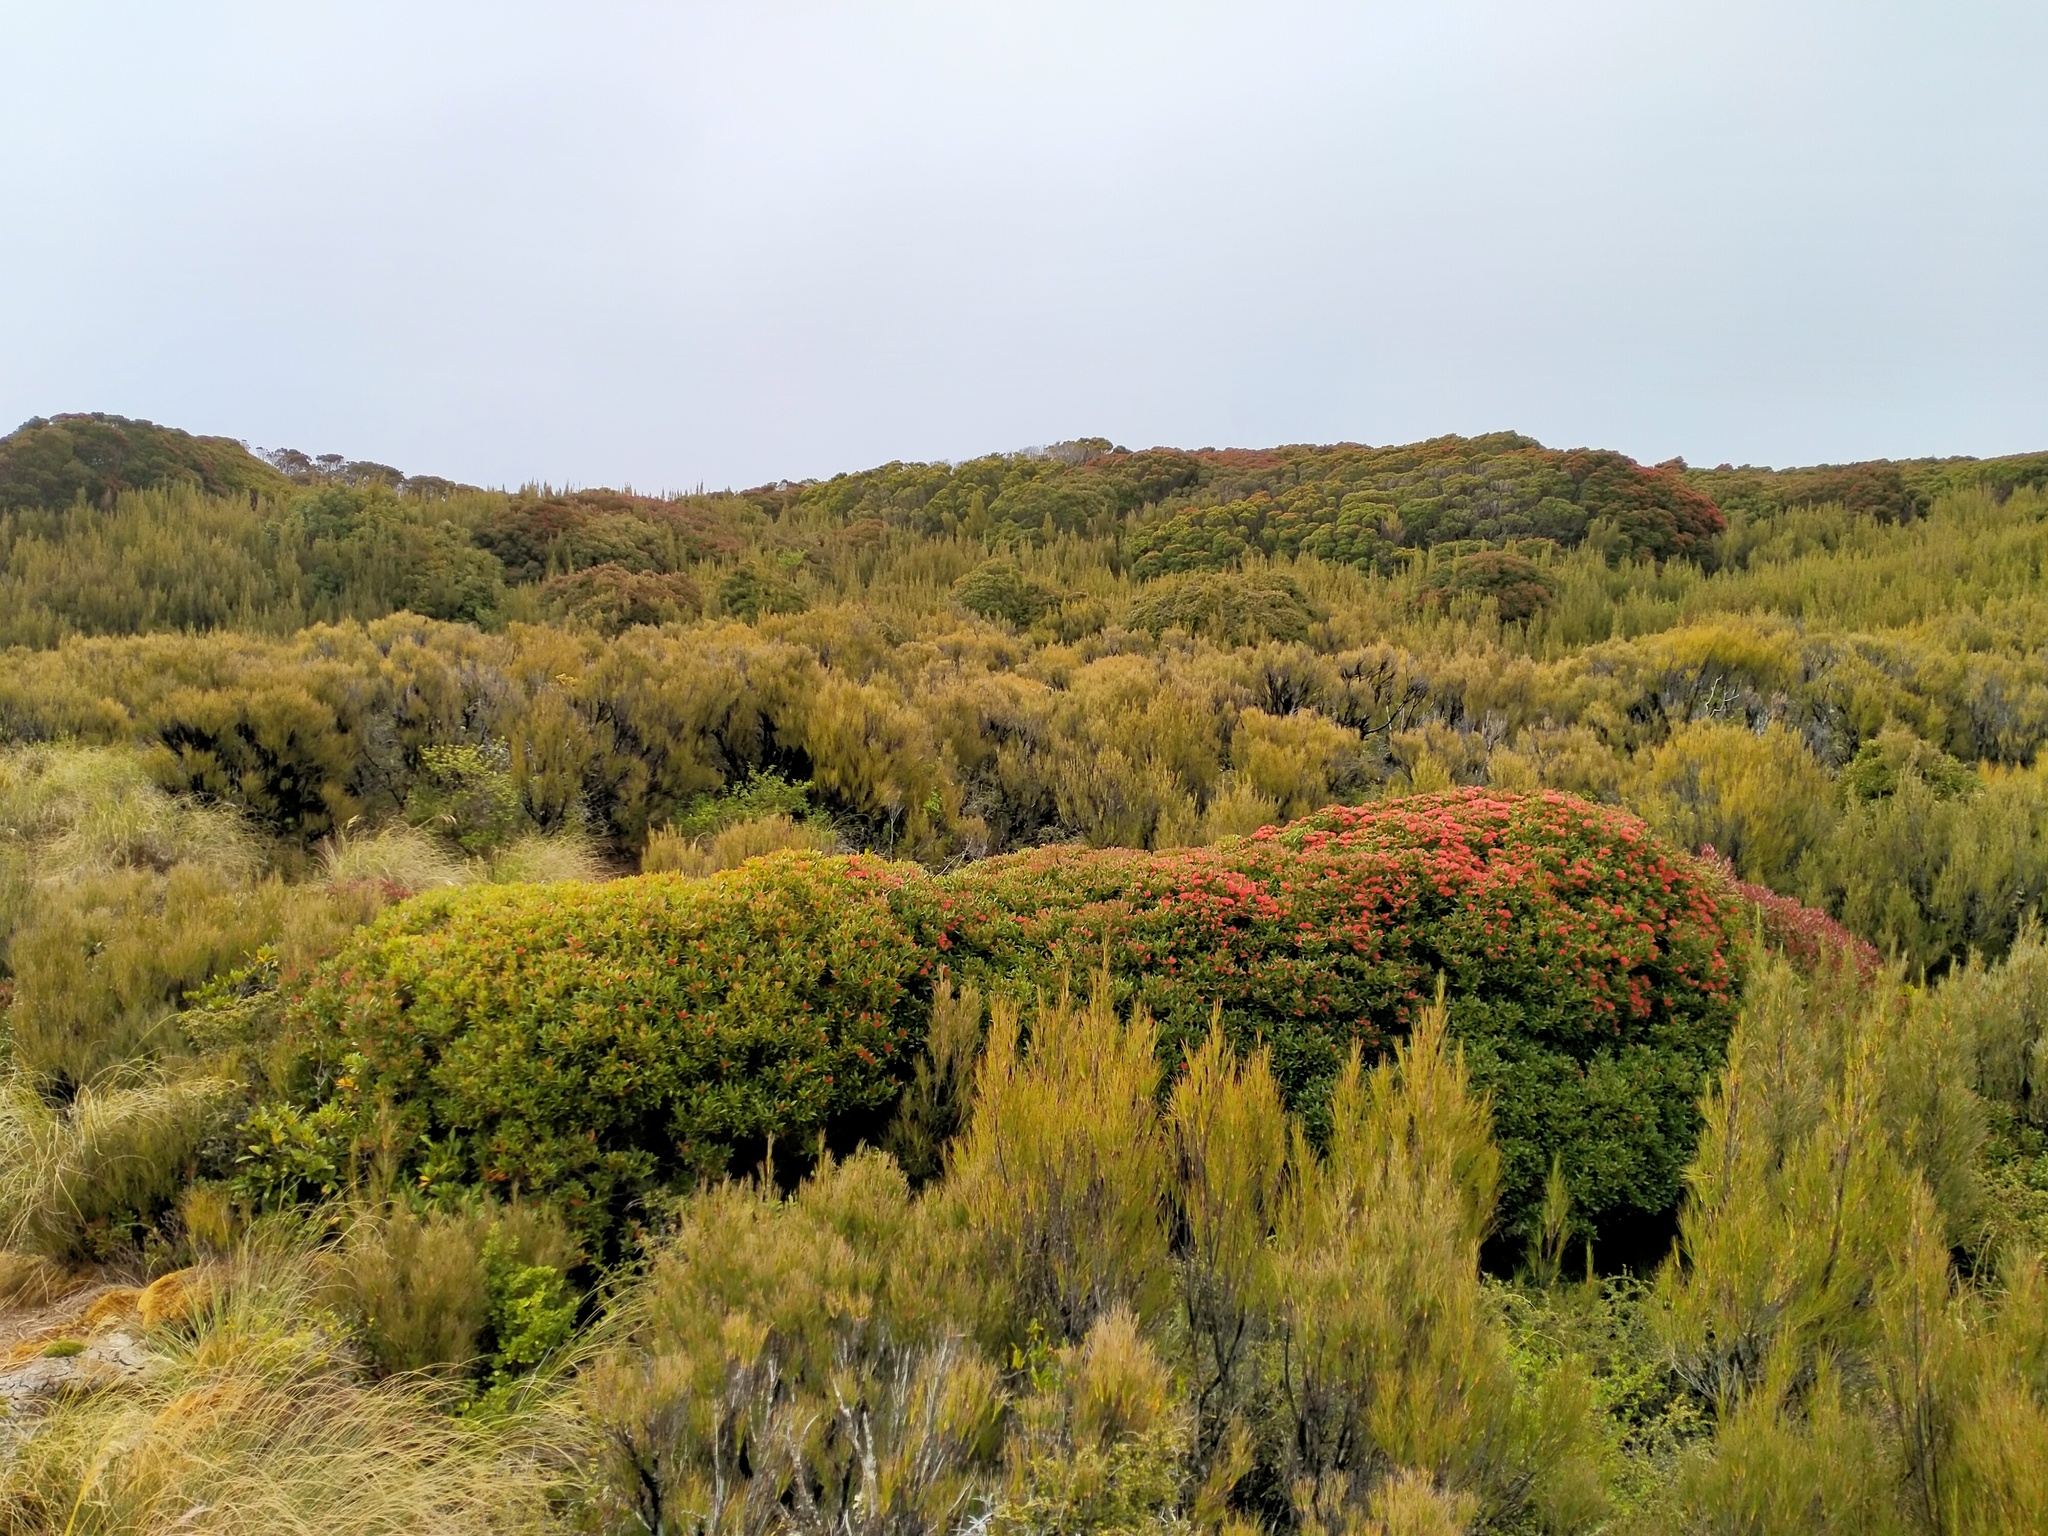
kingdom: Plantae
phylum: Tracheophyta
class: Magnoliopsida
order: Myrtales
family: Myrtaceae
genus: Metrosideros
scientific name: Metrosideros umbellata
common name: Southern rata
